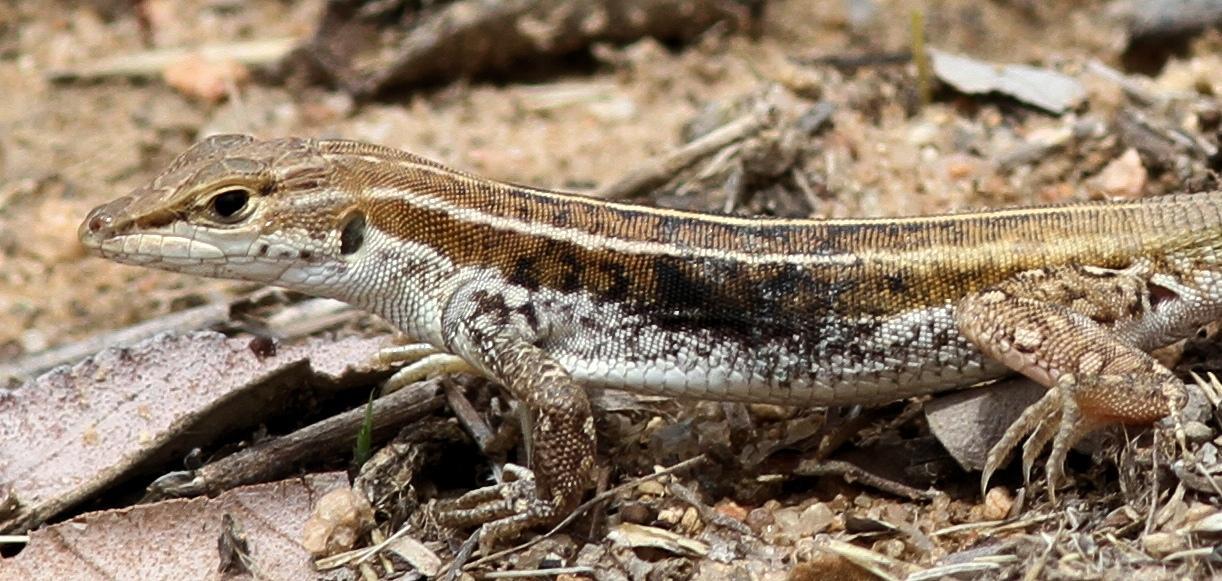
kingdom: Animalia
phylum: Chordata
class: Squamata
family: Lacertidae
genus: Heliobolus
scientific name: Heliobolus lugubris
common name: Bushveld lizard
